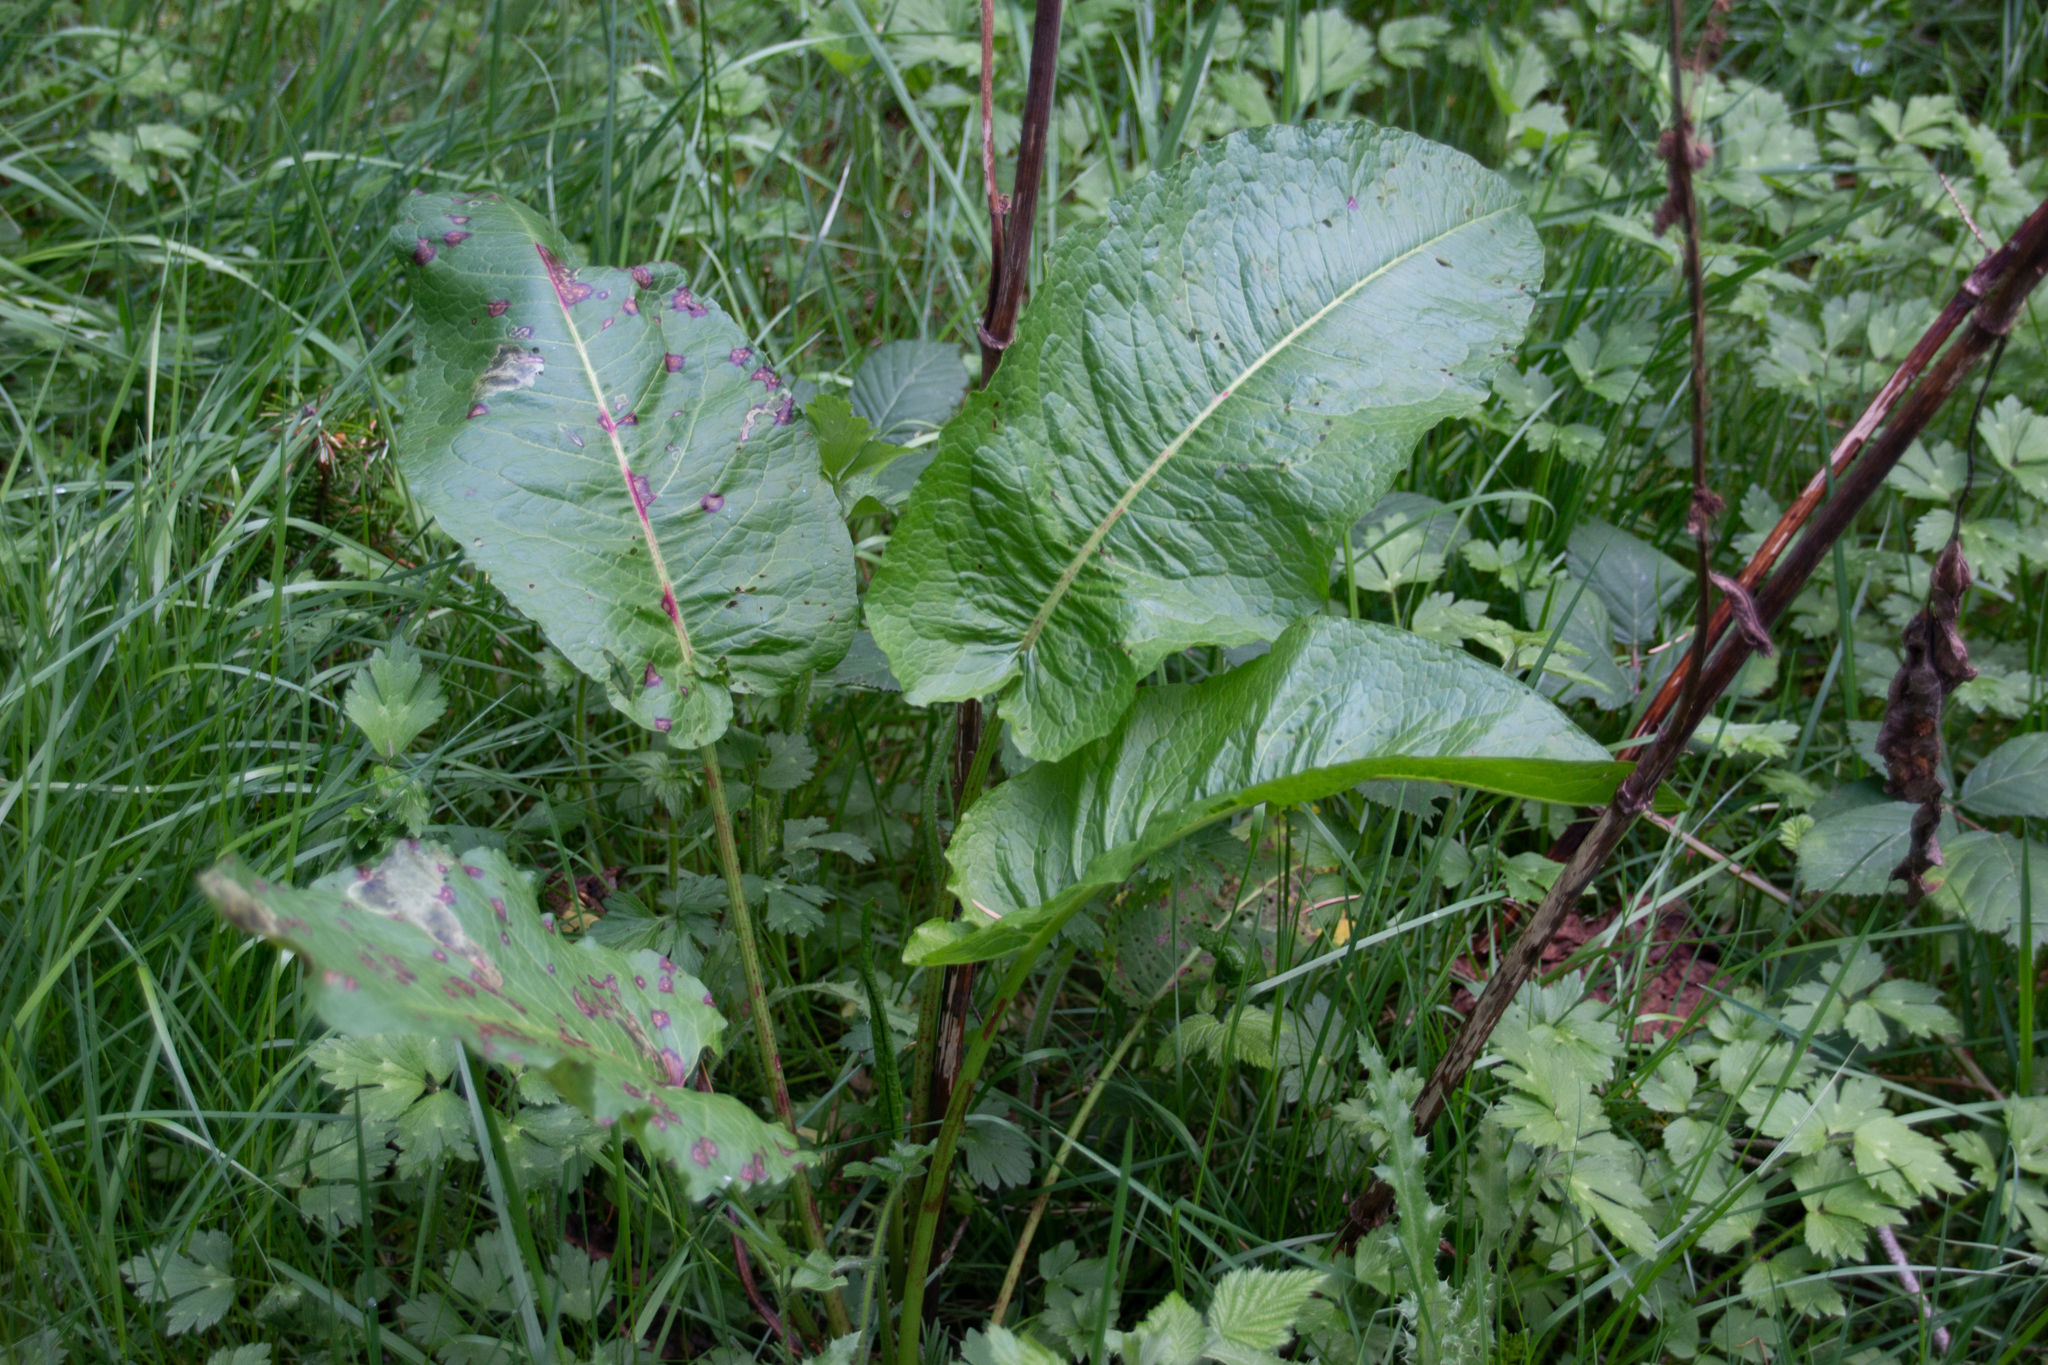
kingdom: Plantae
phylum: Tracheophyta
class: Magnoliopsida
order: Caryophyllales
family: Polygonaceae
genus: Rumex
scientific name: Rumex obtusifolius
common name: Bitter dock
